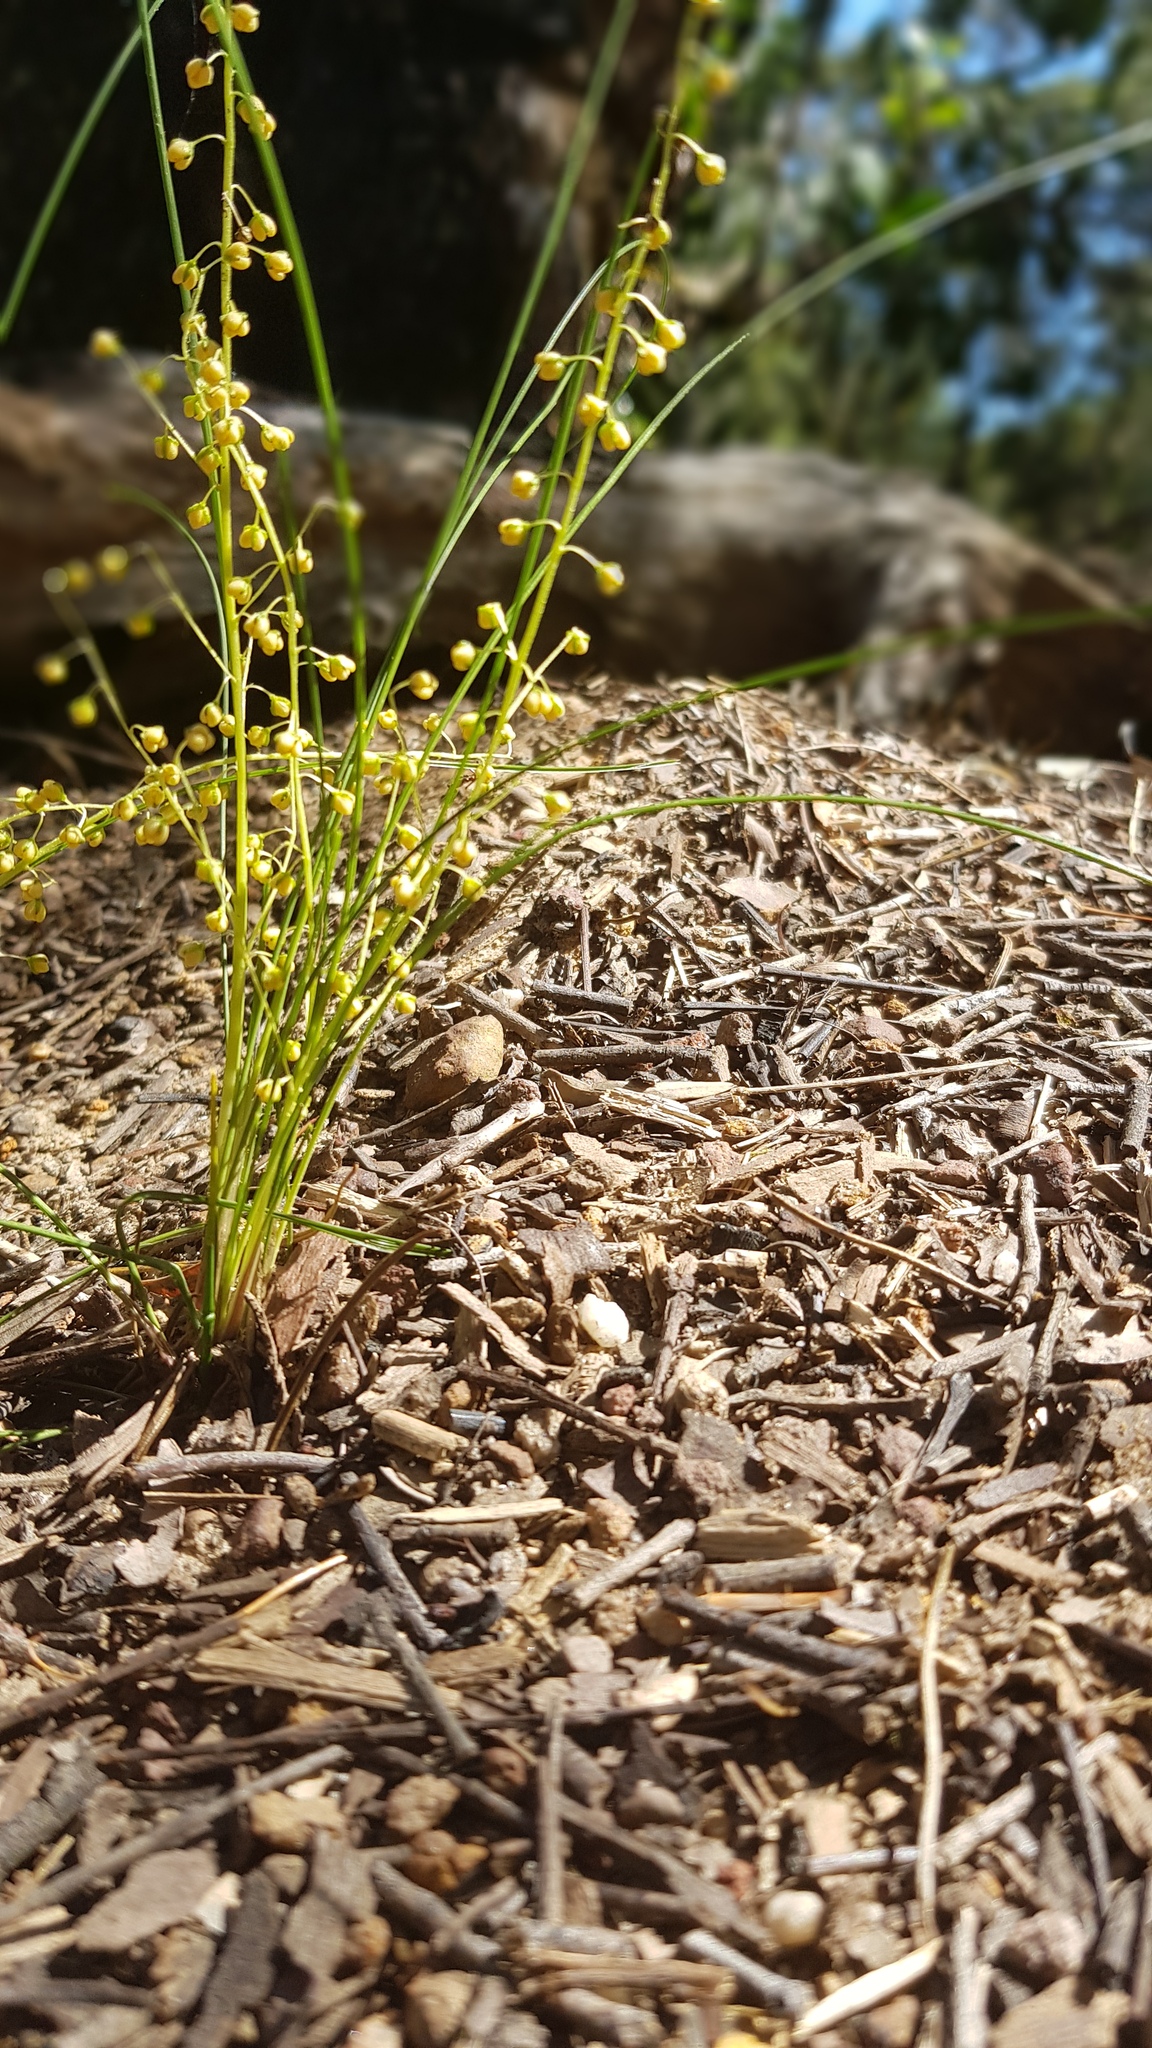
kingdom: Plantae
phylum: Tracheophyta
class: Liliopsida
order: Asparagales
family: Asparagaceae
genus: Lomandra
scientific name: Lomandra filiformis
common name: Wattle mat-rush
